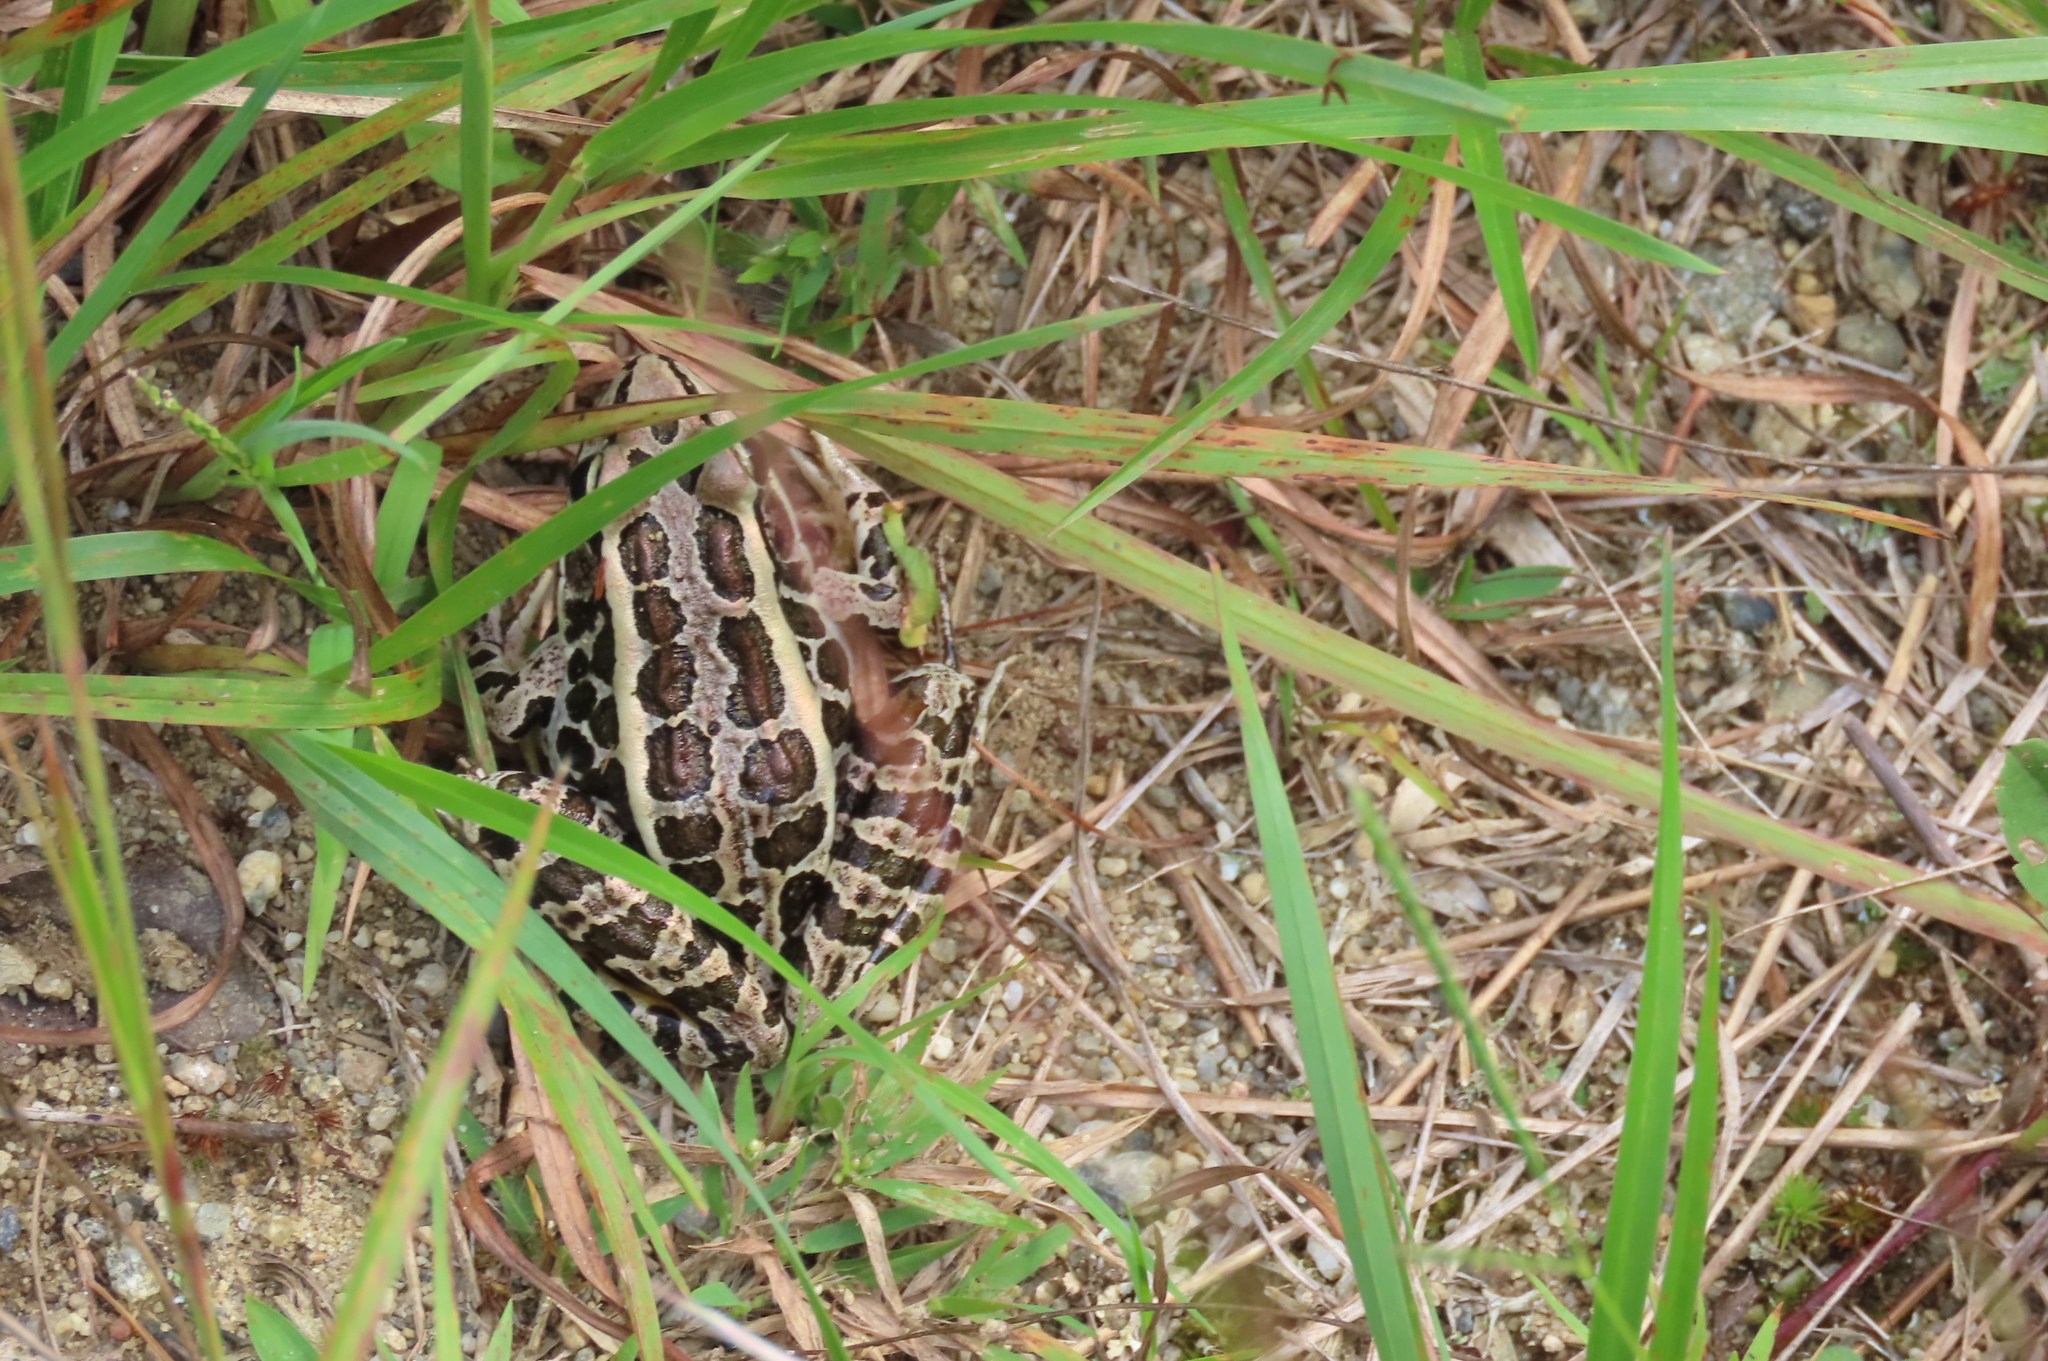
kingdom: Animalia
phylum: Chordata
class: Amphibia
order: Anura
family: Ranidae
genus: Lithobates
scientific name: Lithobates palustris
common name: Pickerel frog
